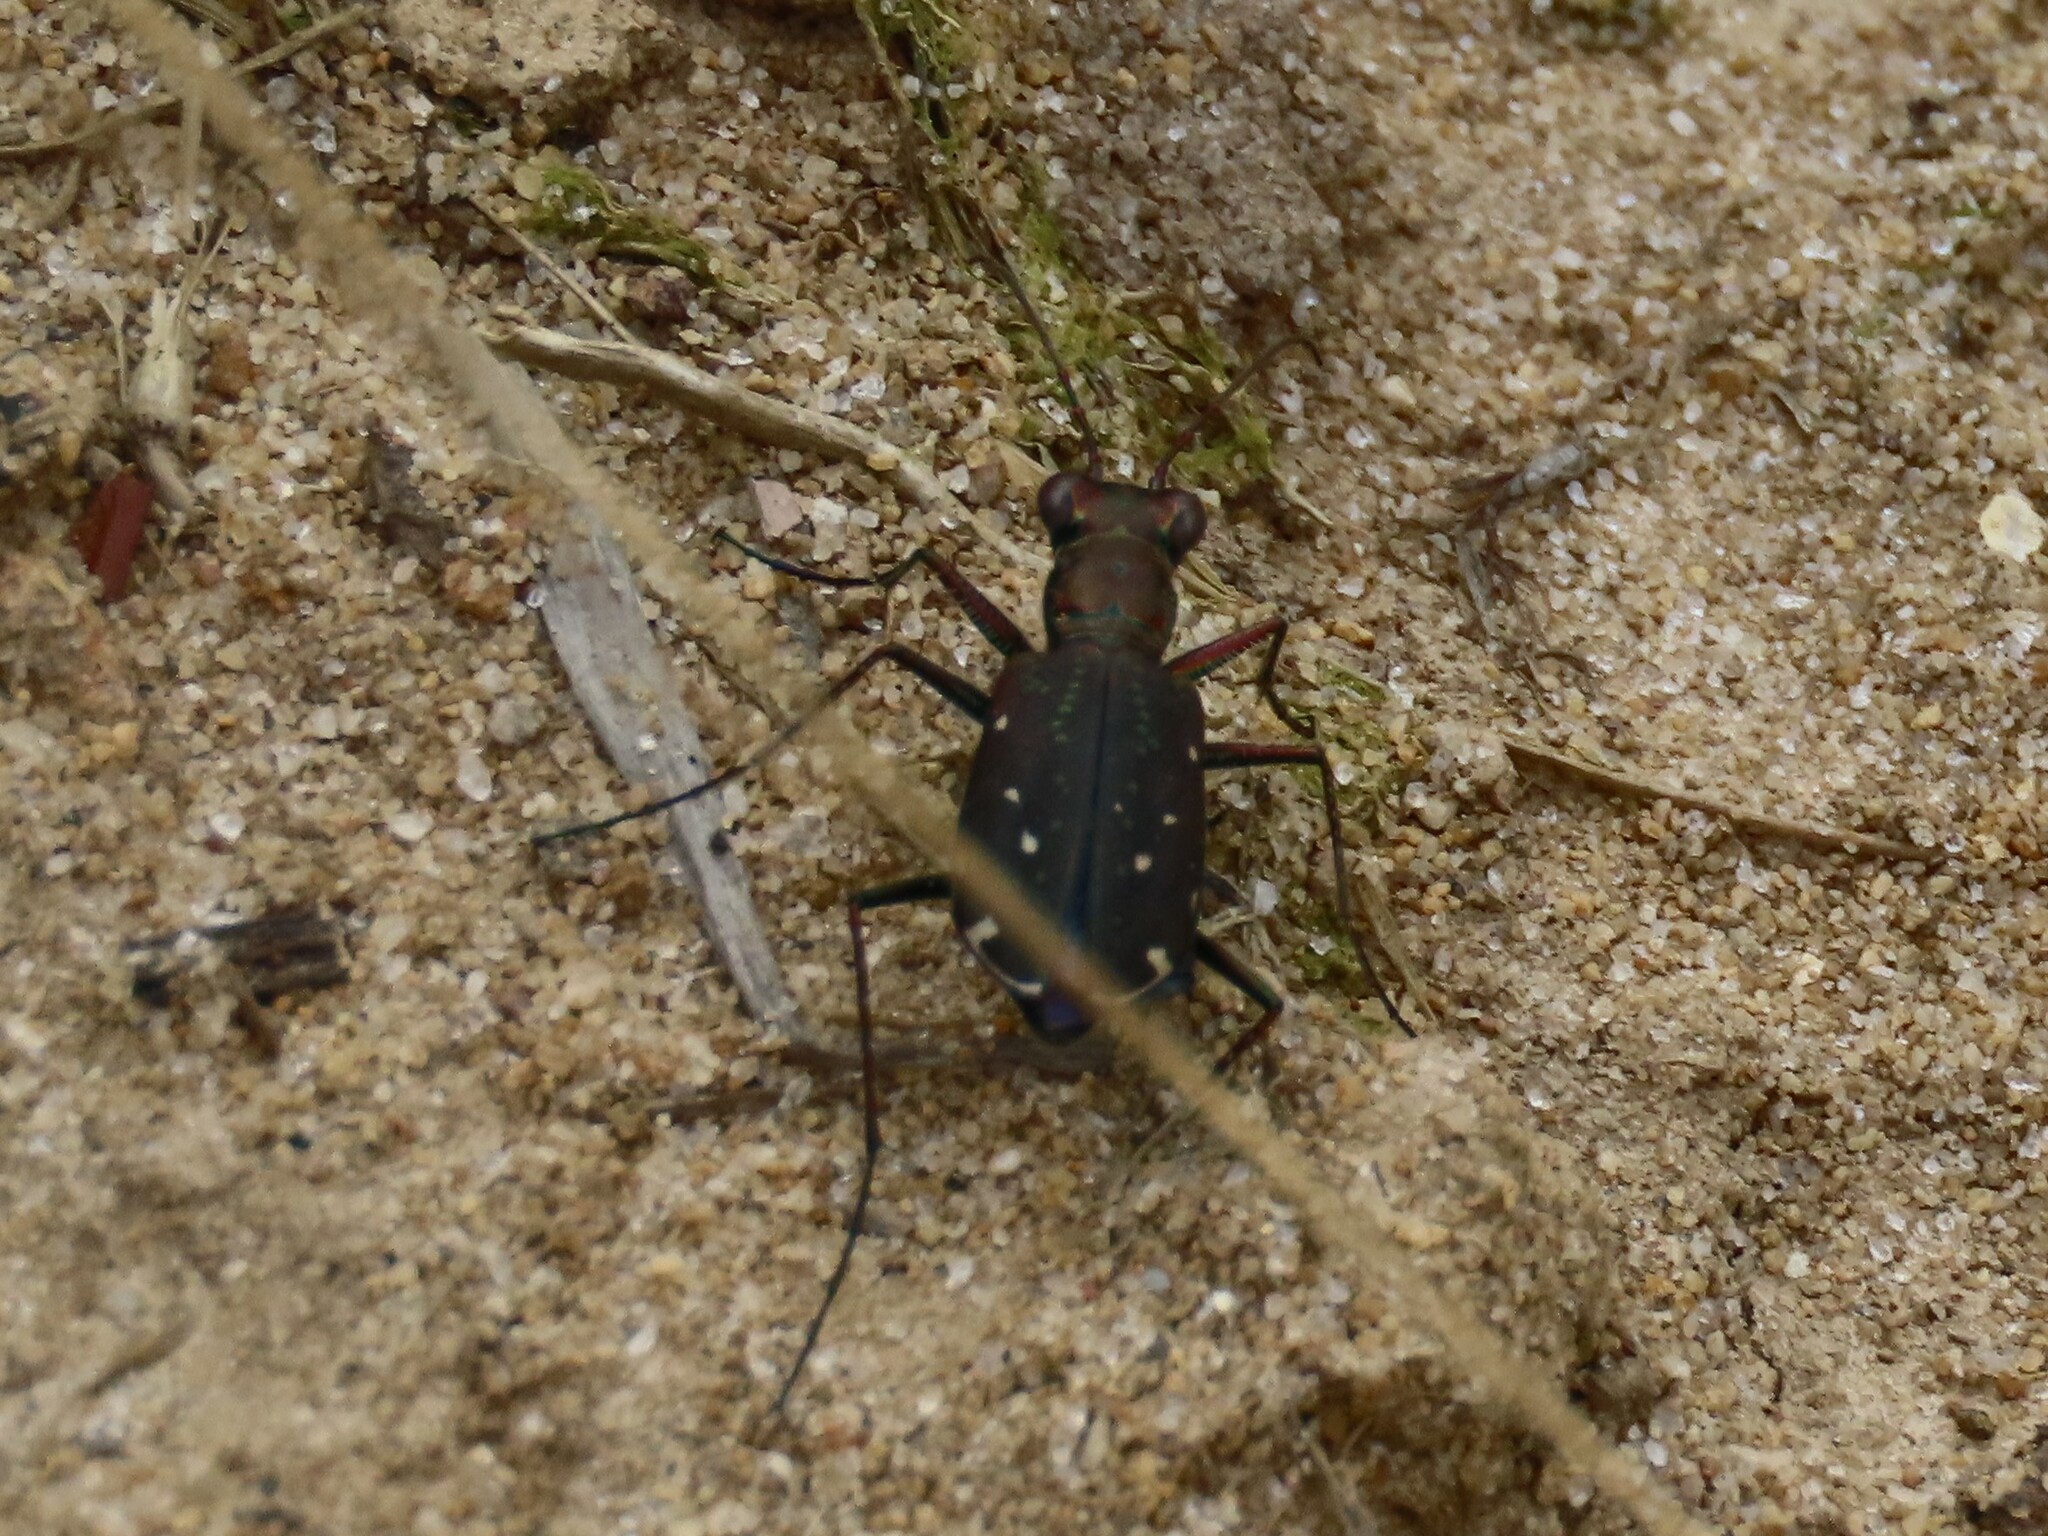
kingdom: Animalia
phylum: Arthropoda
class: Insecta
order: Coleoptera
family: Carabidae
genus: Cicindela
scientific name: Cicindela punctulata
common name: Punctured tiger beetle
